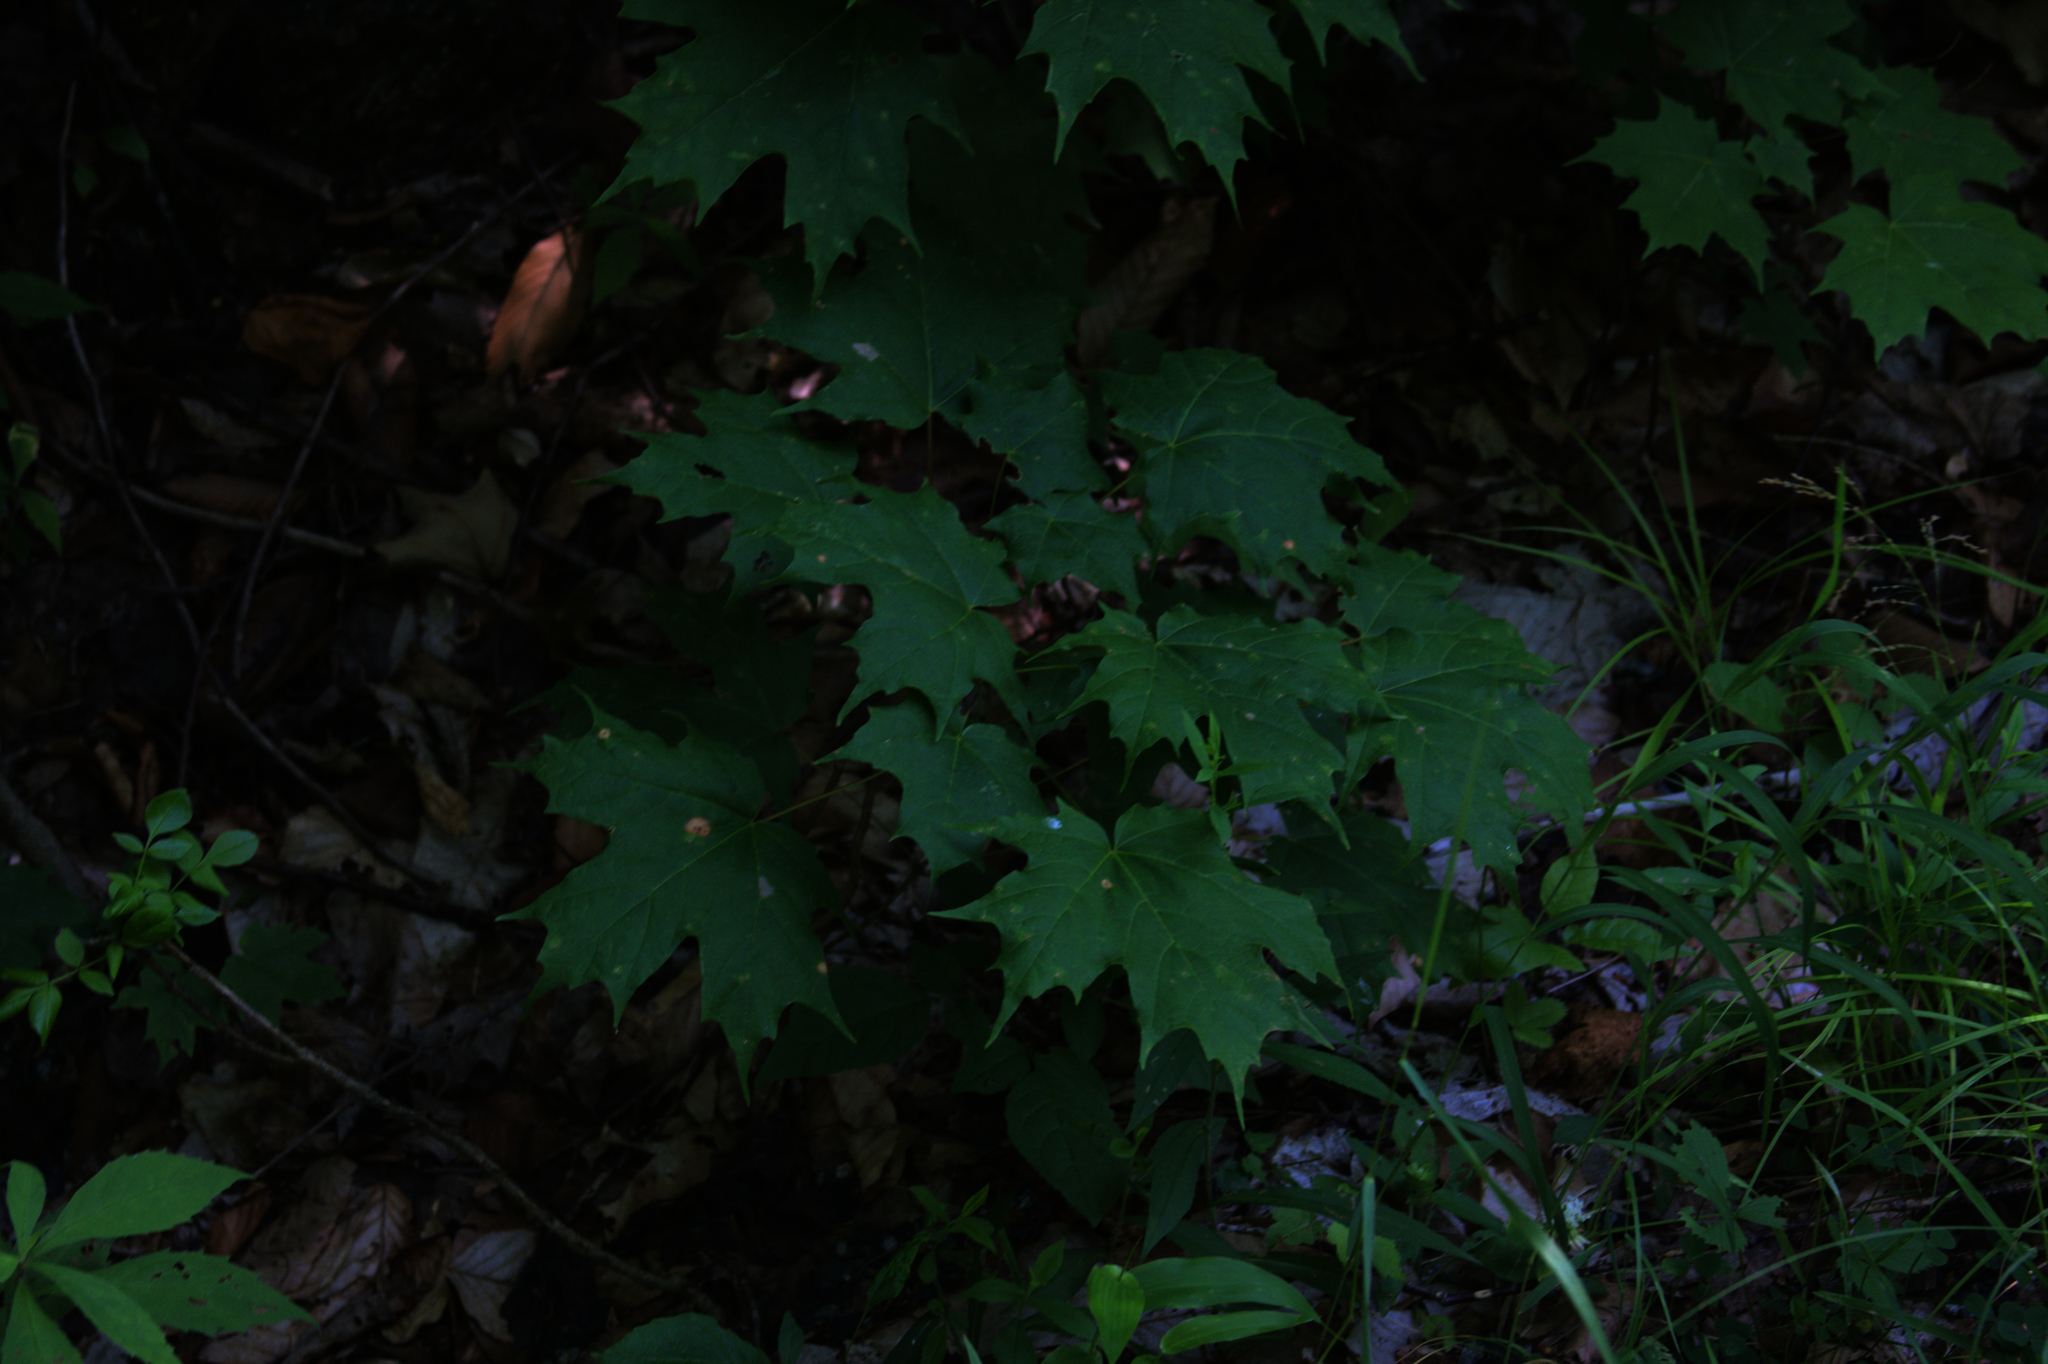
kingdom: Plantae
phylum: Tracheophyta
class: Magnoliopsida
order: Sapindales
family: Sapindaceae
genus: Acer
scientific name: Acer saccharum
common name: Sugar maple
